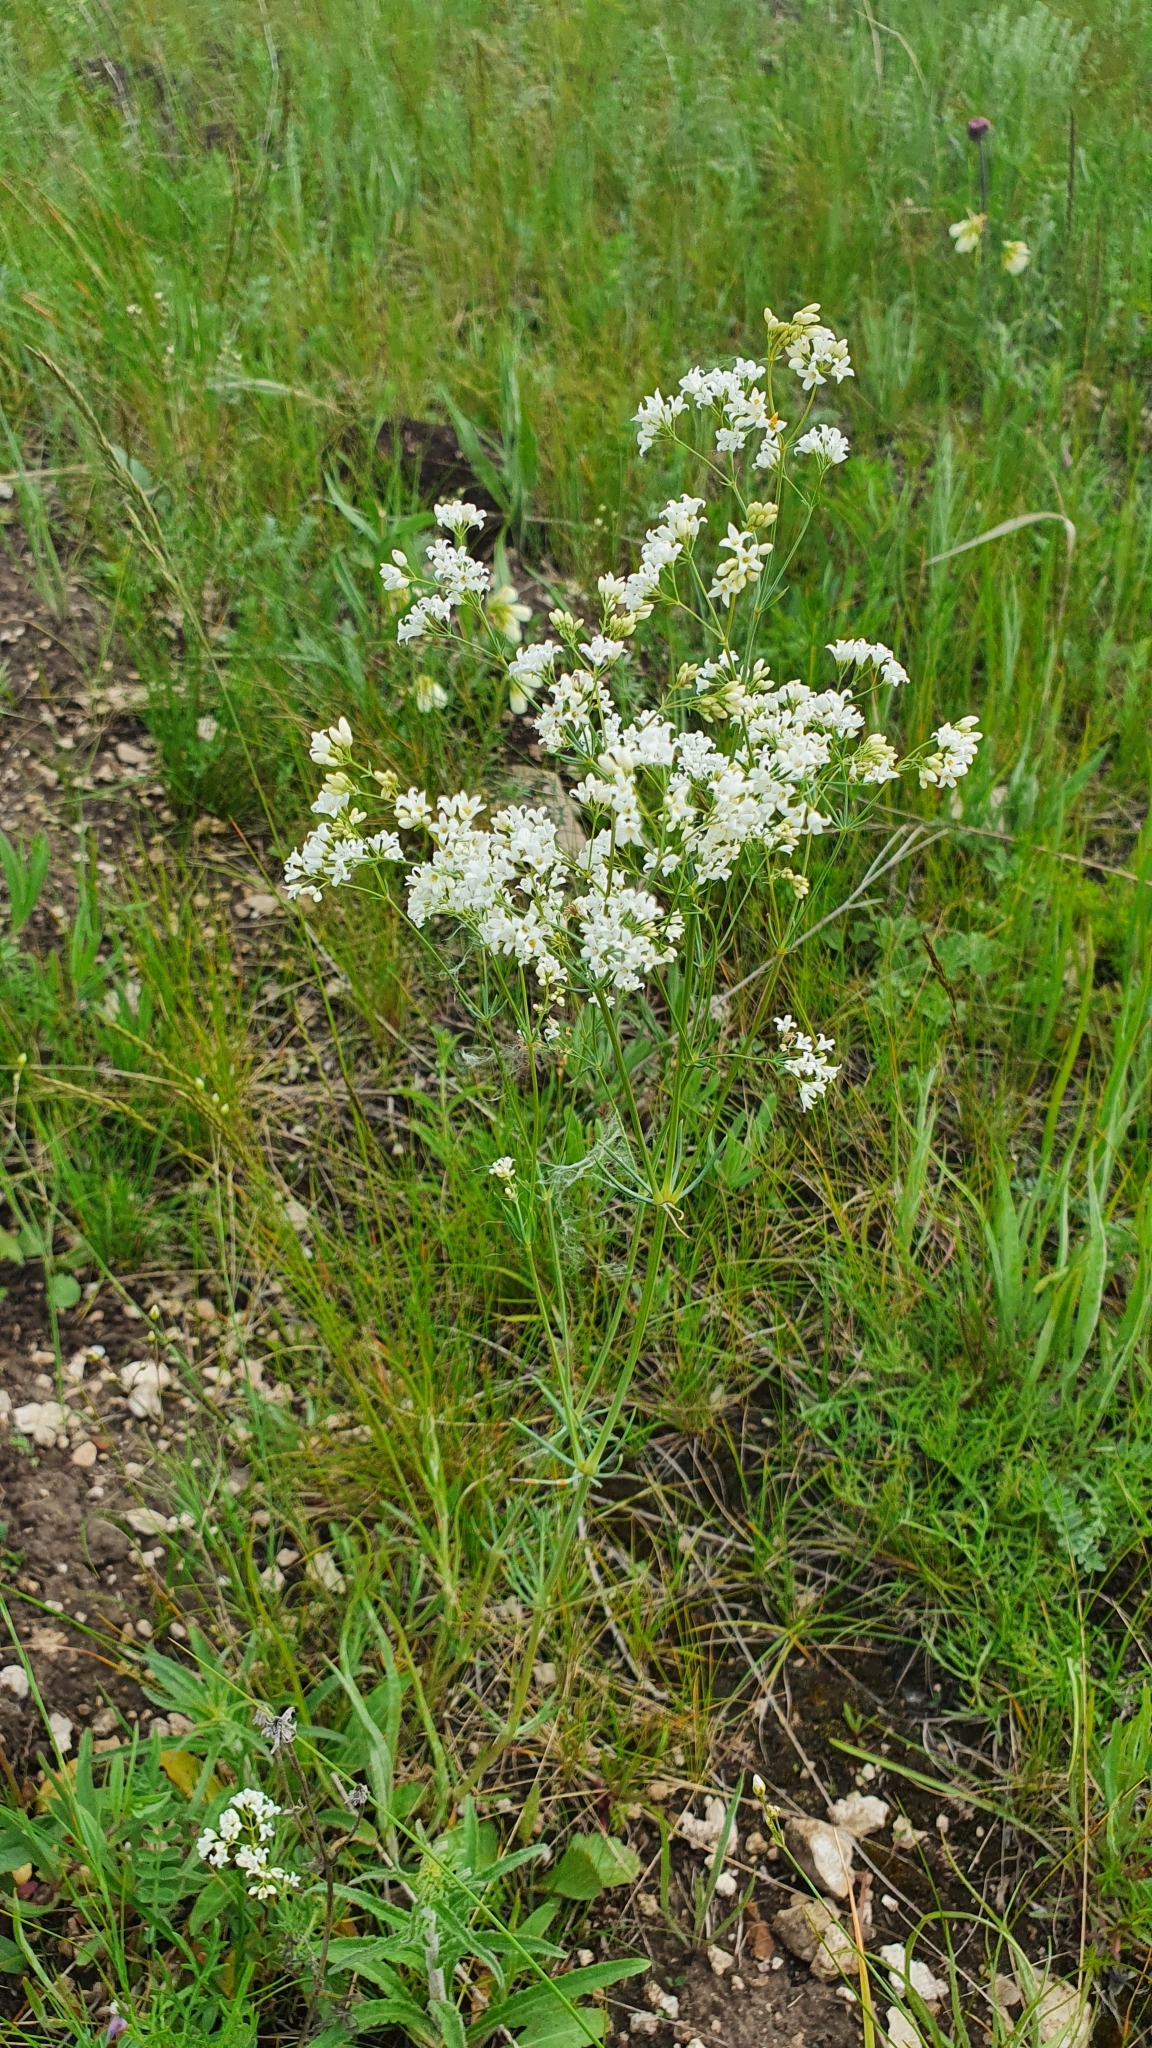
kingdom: Plantae
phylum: Tracheophyta
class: Magnoliopsida
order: Gentianales
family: Rubiaceae
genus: Galium
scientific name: Galium hexanarium
